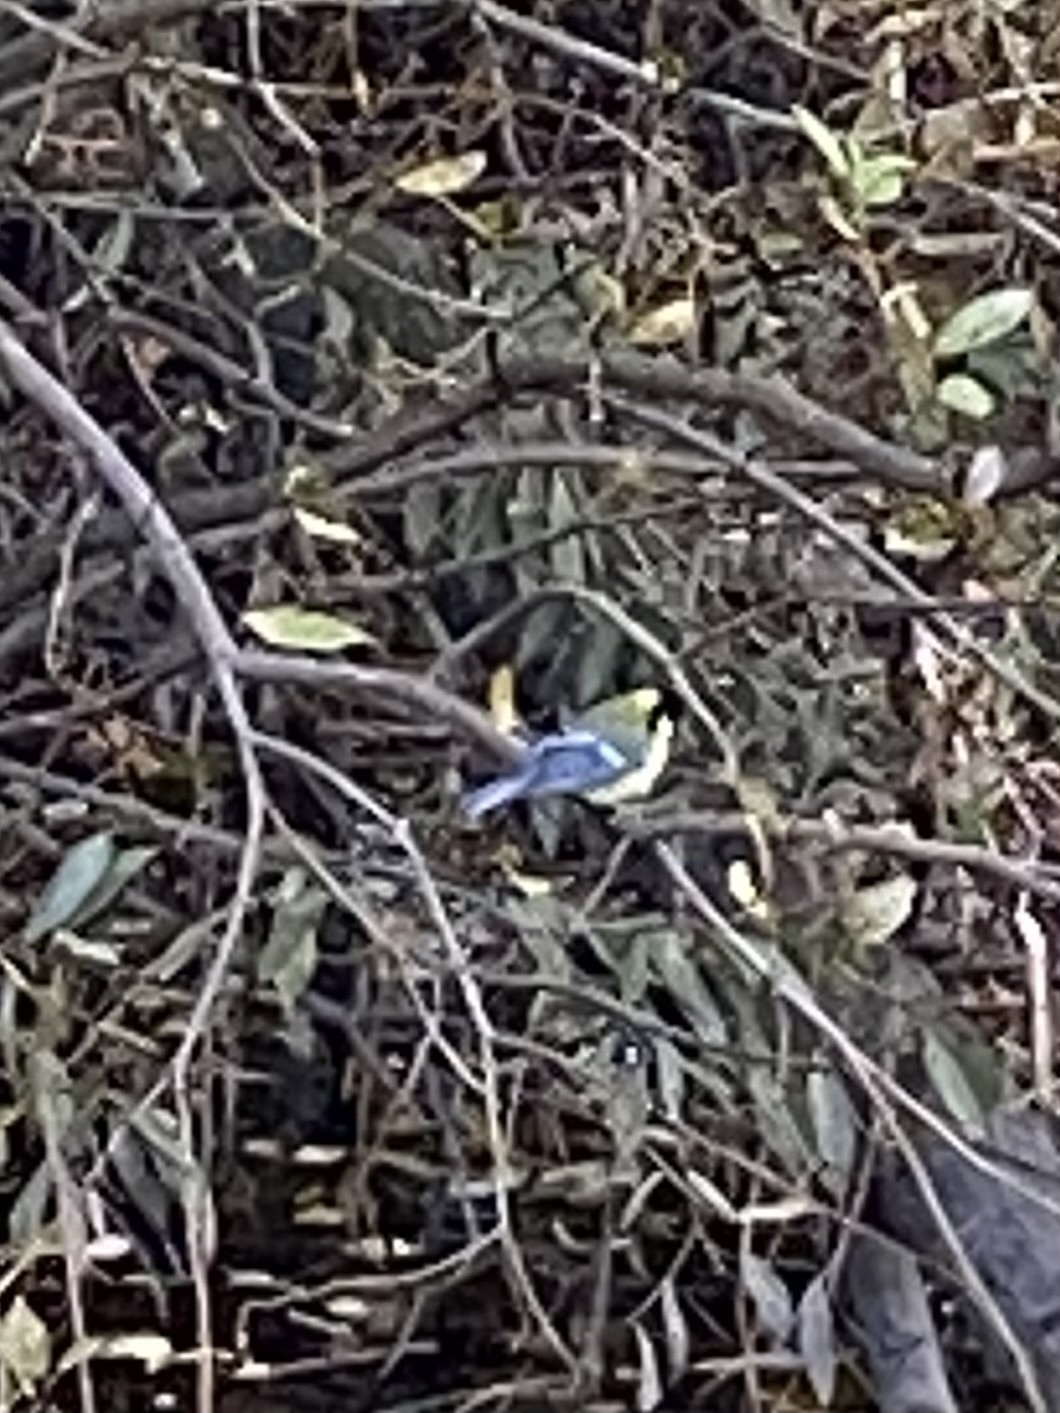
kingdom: Animalia
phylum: Chordata
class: Aves
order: Passeriformes
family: Paridae
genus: Parus
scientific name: Parus major
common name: Great tit
